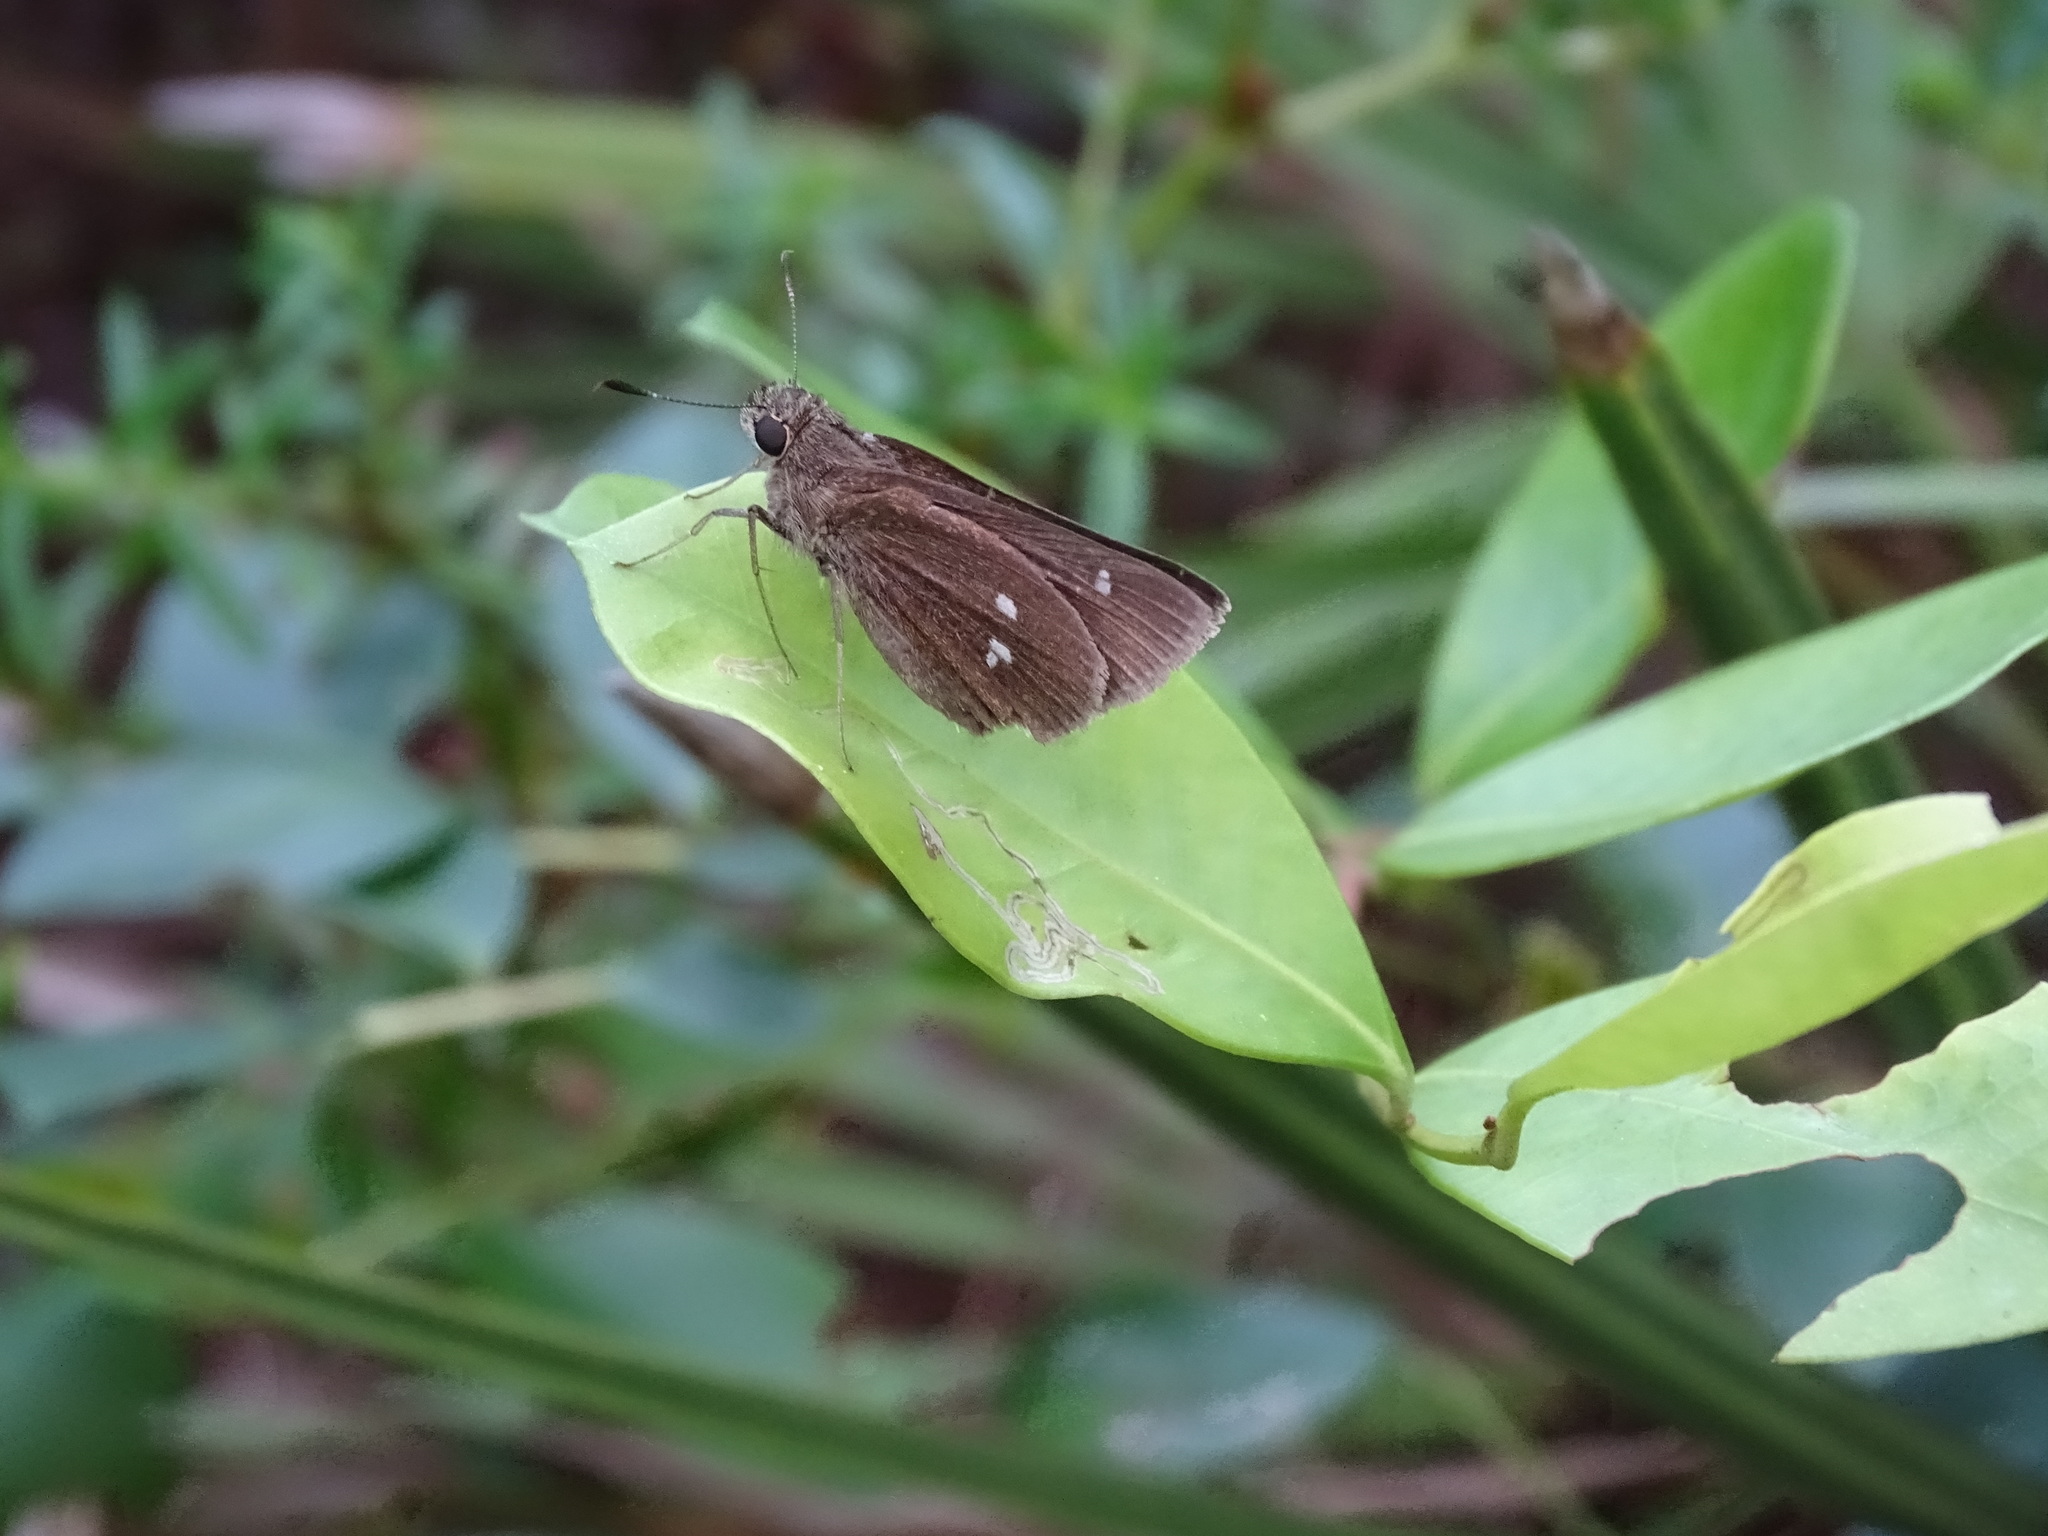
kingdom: Animalia
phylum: Arthropoda
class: Insecta
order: Lepidoptera
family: Hesperiidae
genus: Oligoria
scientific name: Oligoria maculata
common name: Twin-spot skipper
